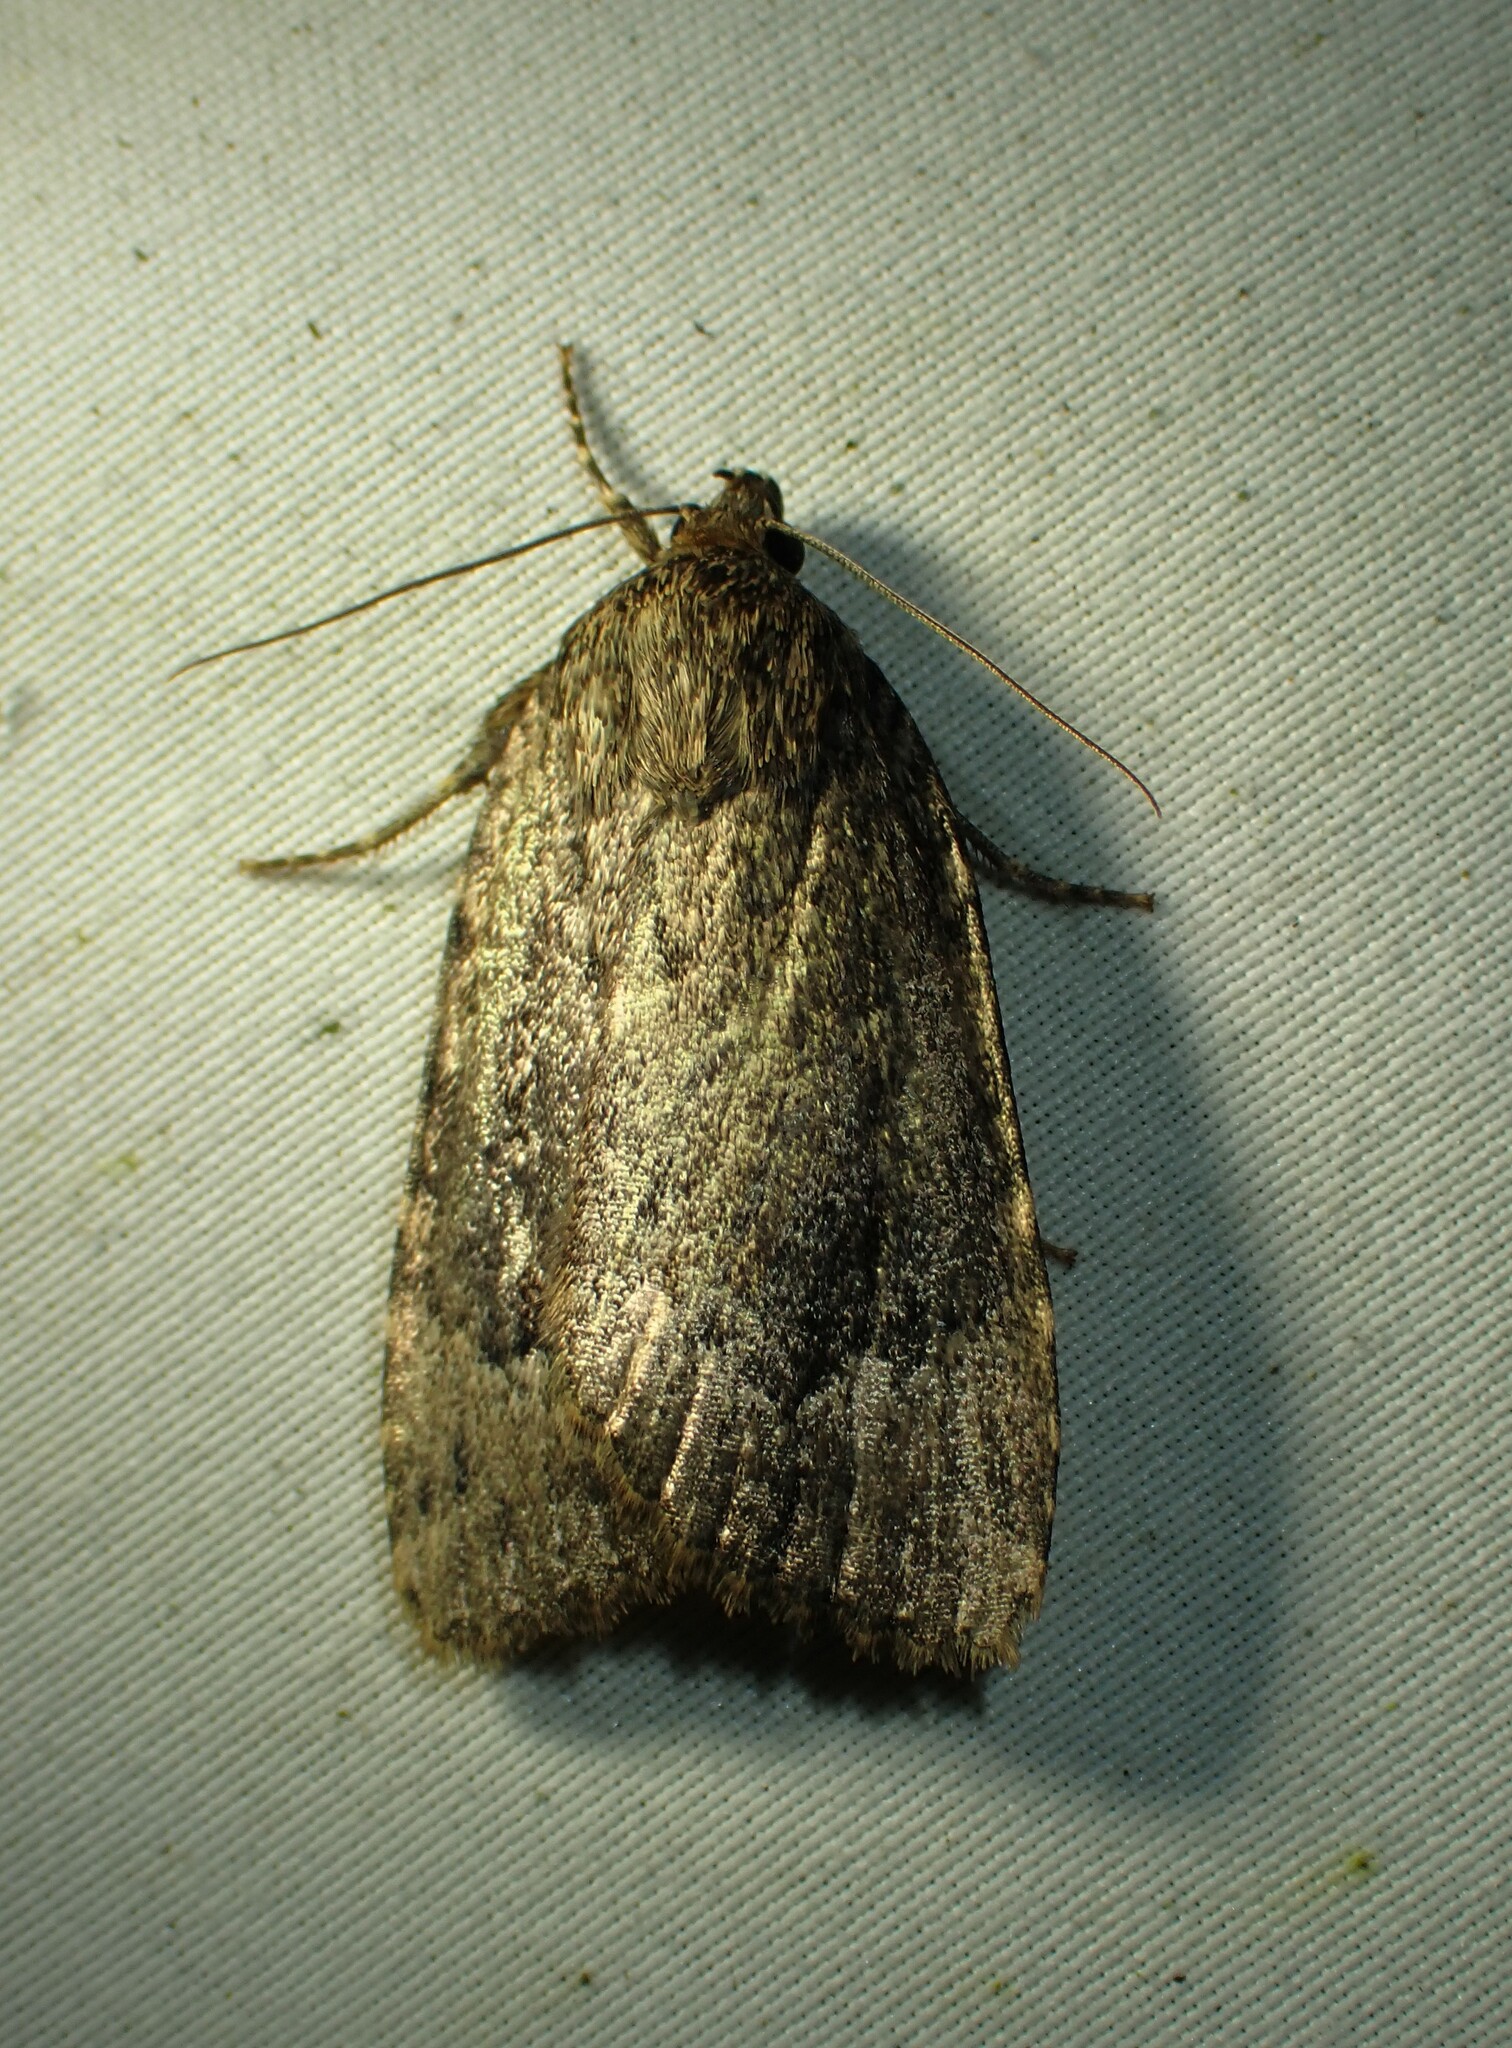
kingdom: Animalia
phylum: Arthropoda
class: Insecta
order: Lepidoptera
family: Noctuidae
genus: Amphipyra
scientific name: Amphipyra pyramidoides
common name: American copper underwing
